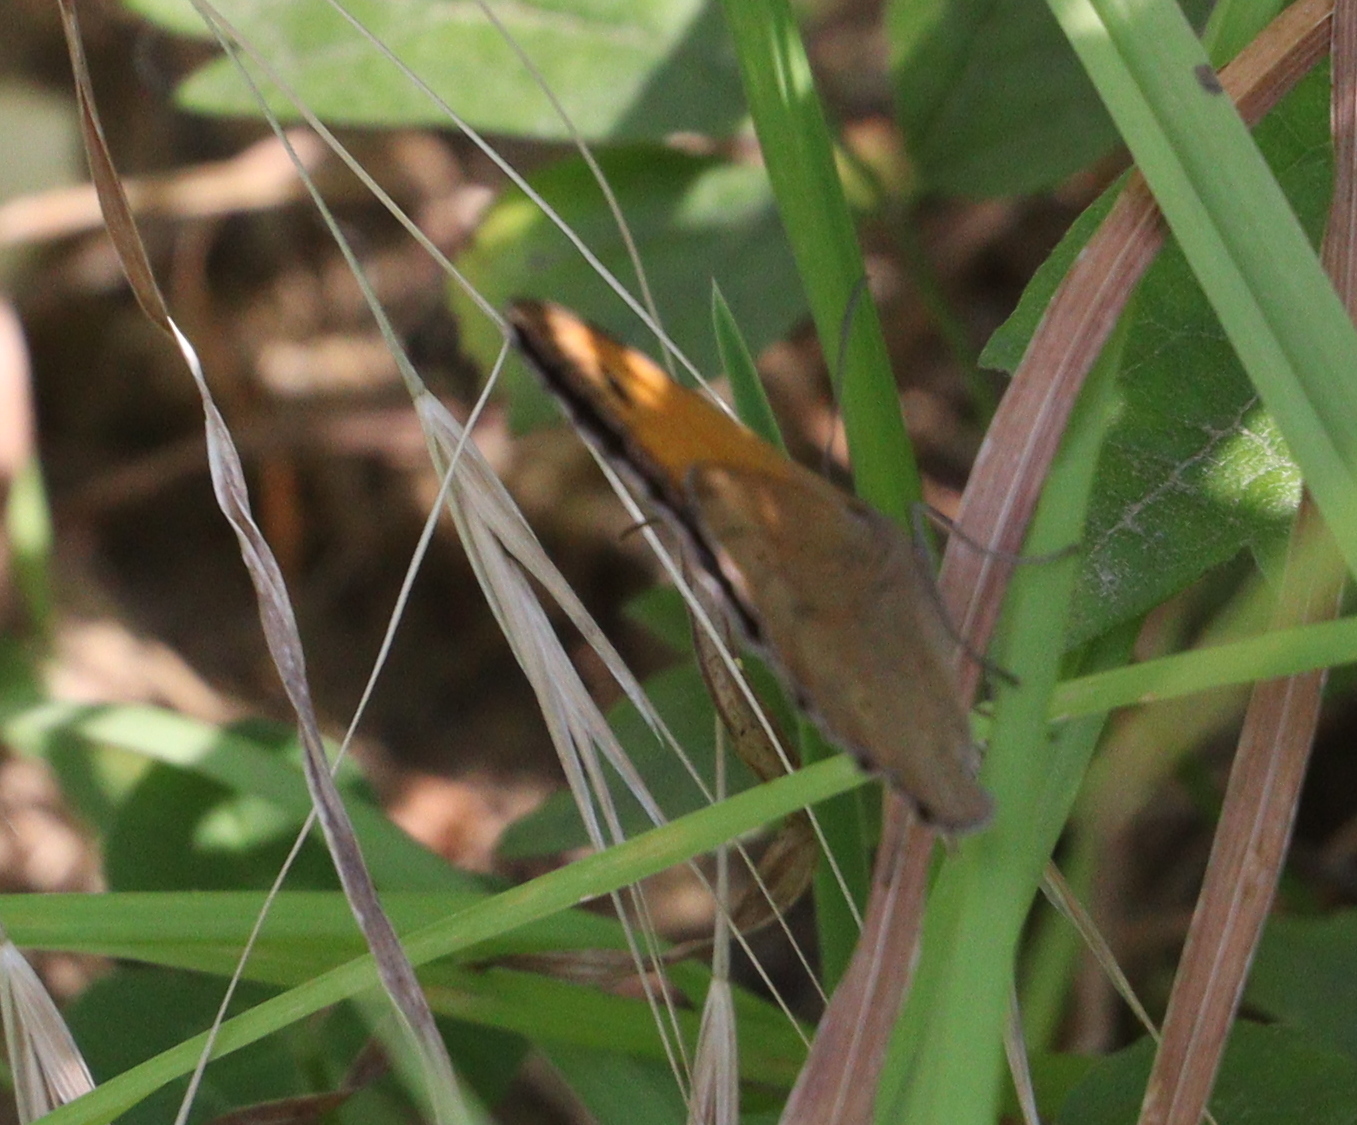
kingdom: Animalia
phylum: Arthropoda
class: Insecta
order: Lepidoptera
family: Nymphalidae
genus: Maniola
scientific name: Maniola jurtina
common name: Meadow brown
